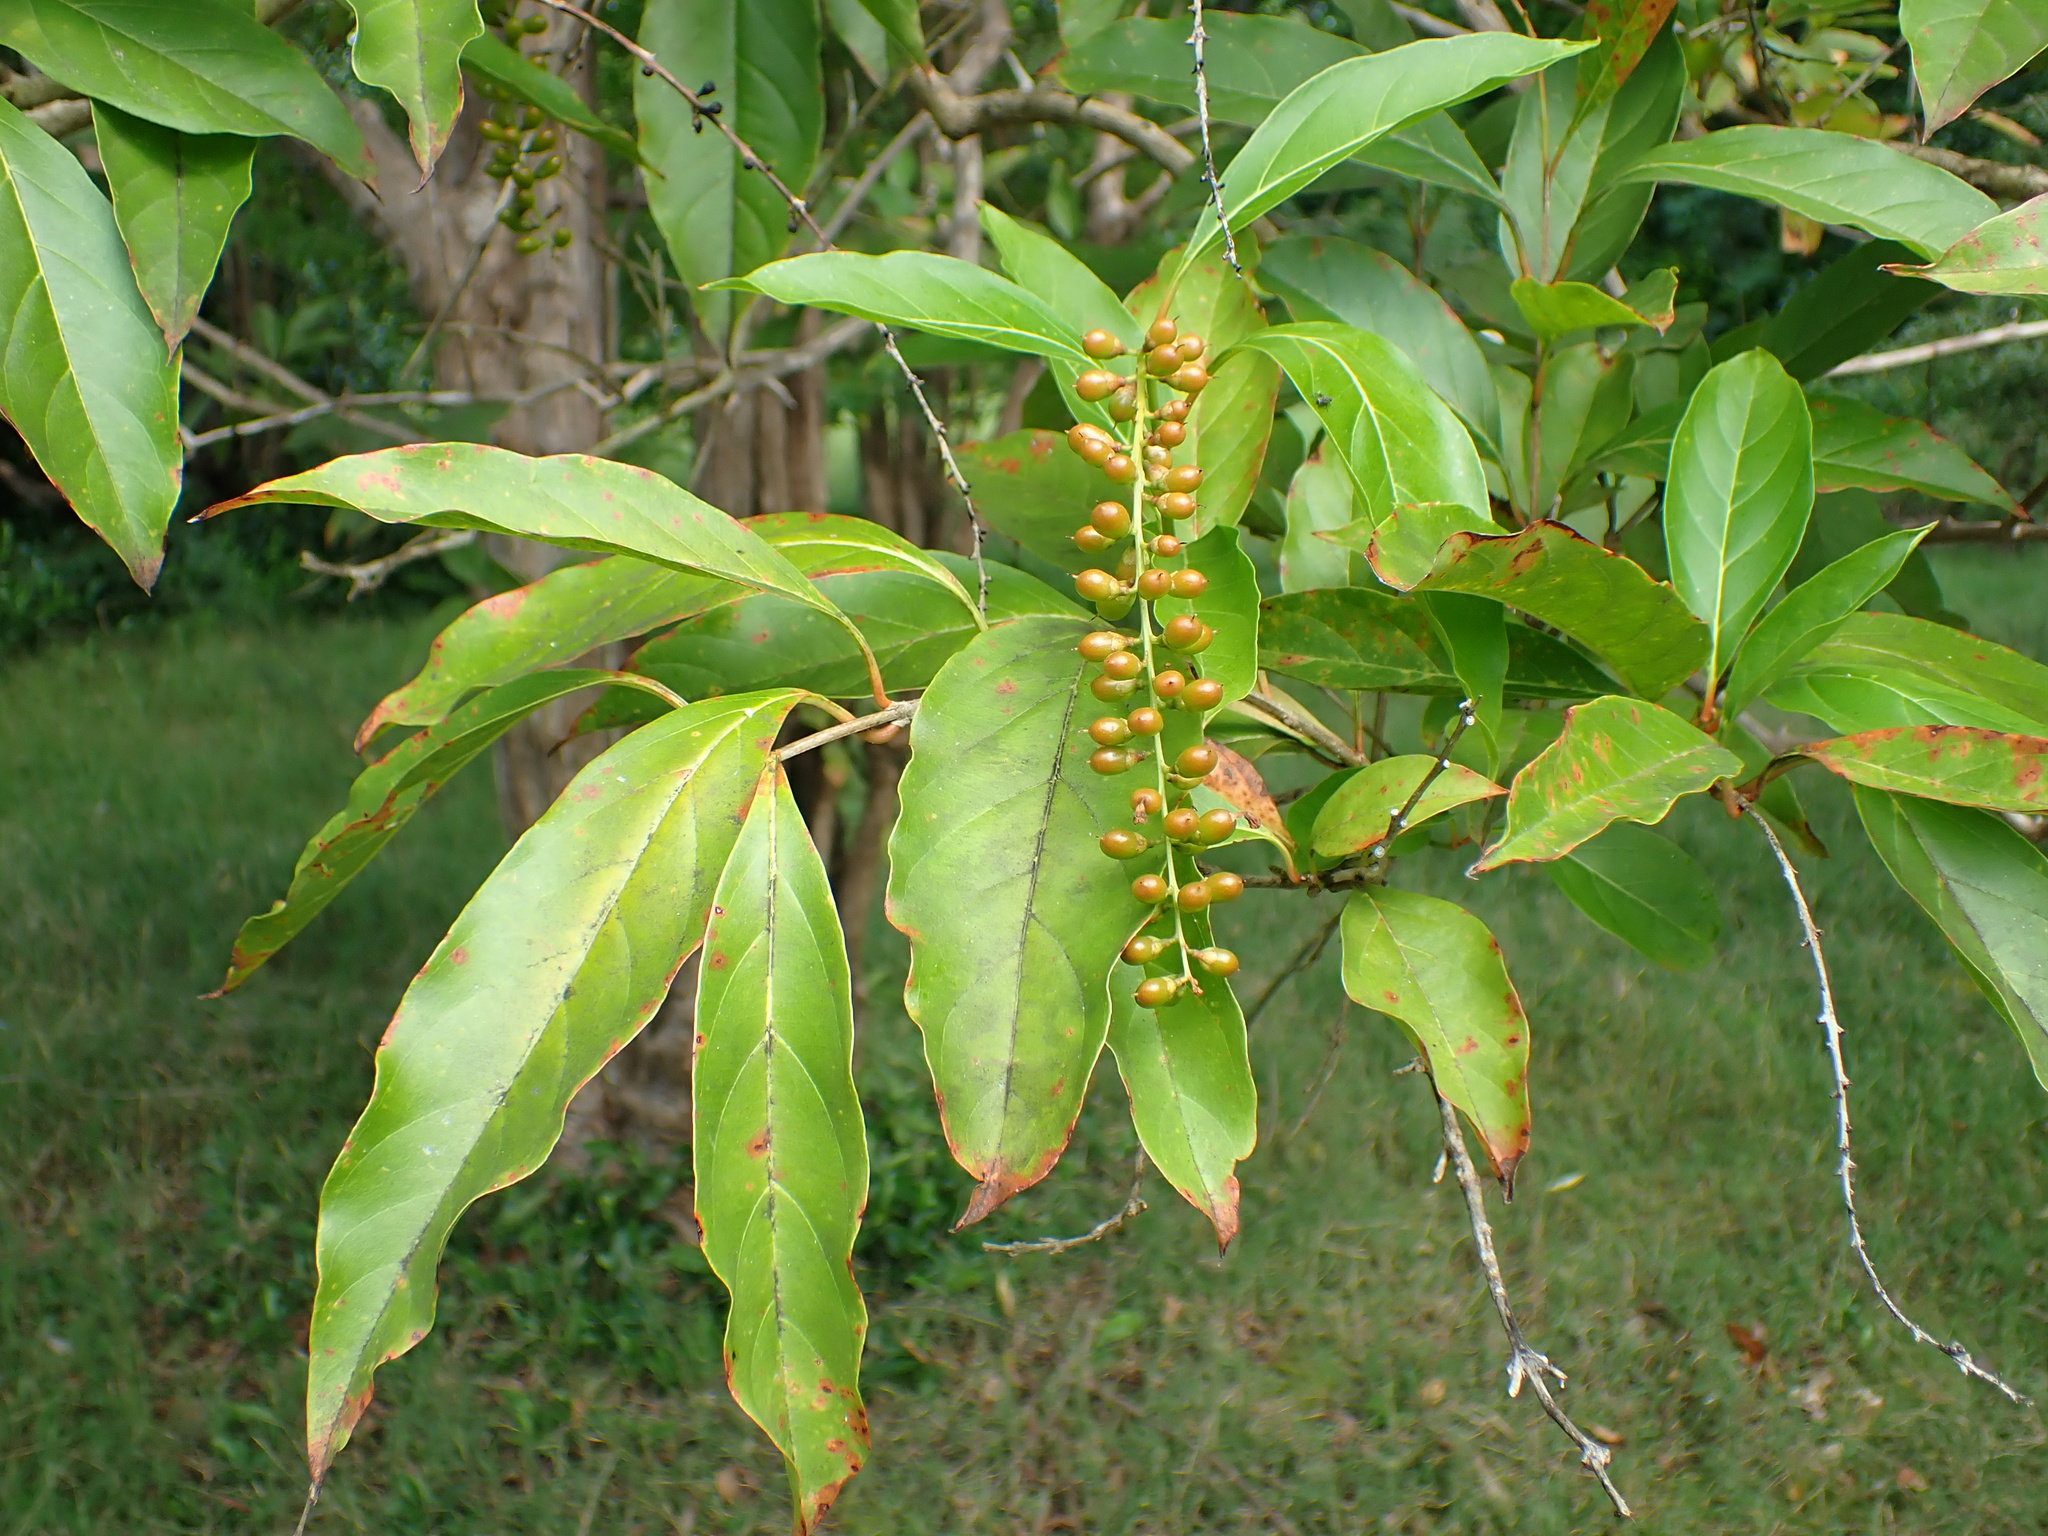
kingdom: Plantae
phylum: Tracheophyta
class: Magnoliopsida
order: Lamiales
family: Verbenaceae
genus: Citharexylum
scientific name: Citharexylum spinosum
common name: Fiddlewood
